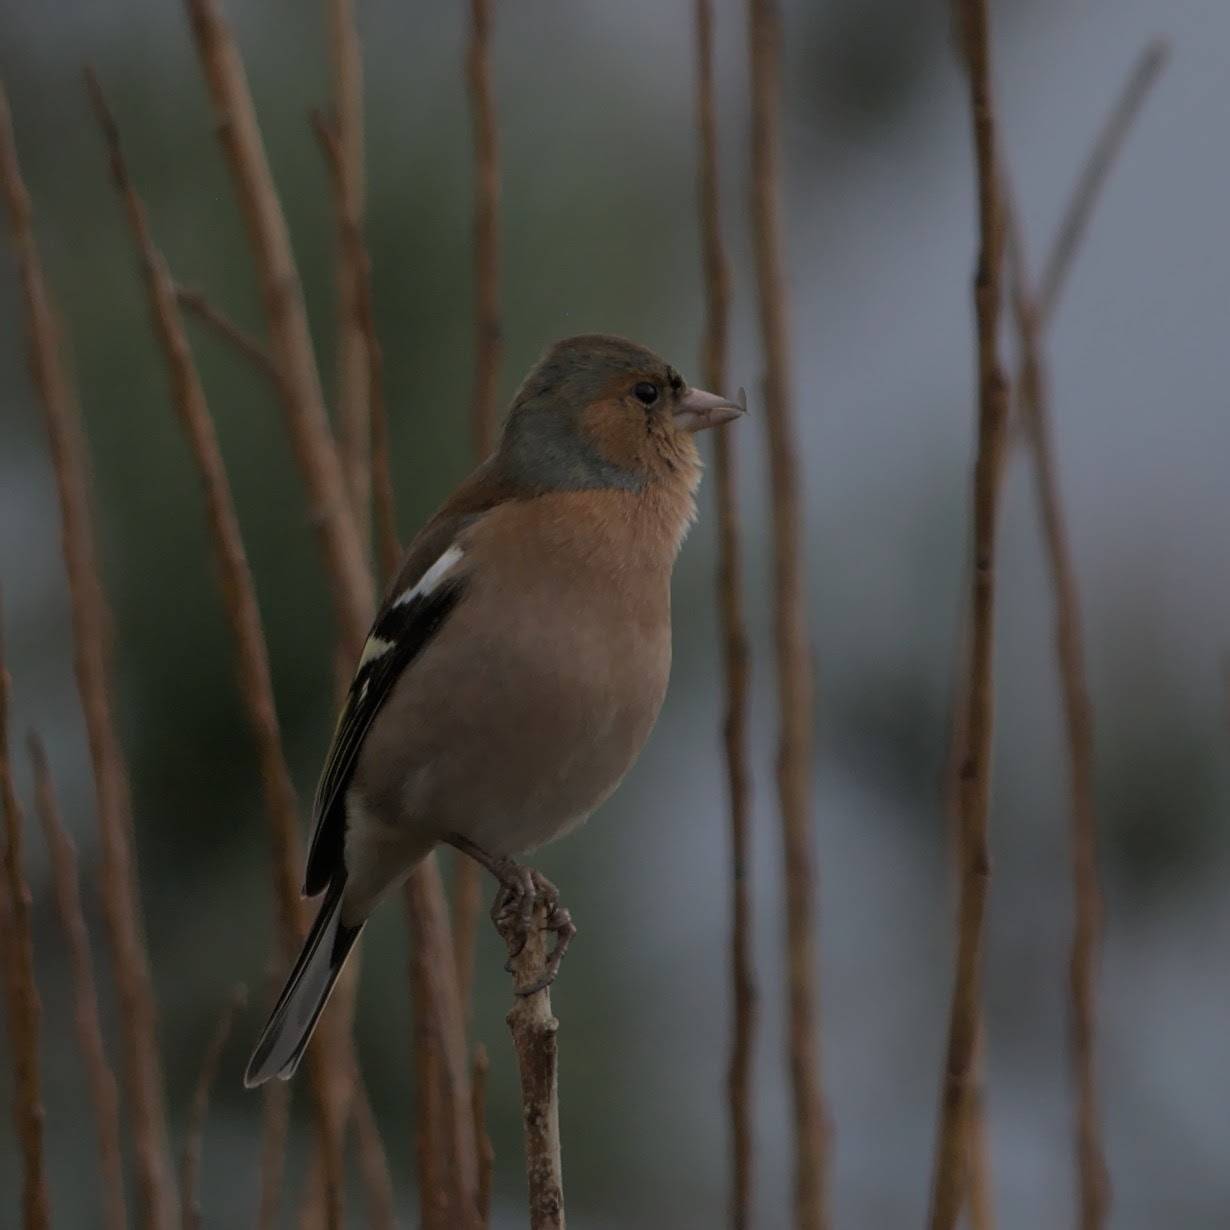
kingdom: Animalia
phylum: Chordata
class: Aves
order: Passeriformes
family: Fringillidae
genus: Fringilla
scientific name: Fringilla coelebs
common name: Common chaffinch
